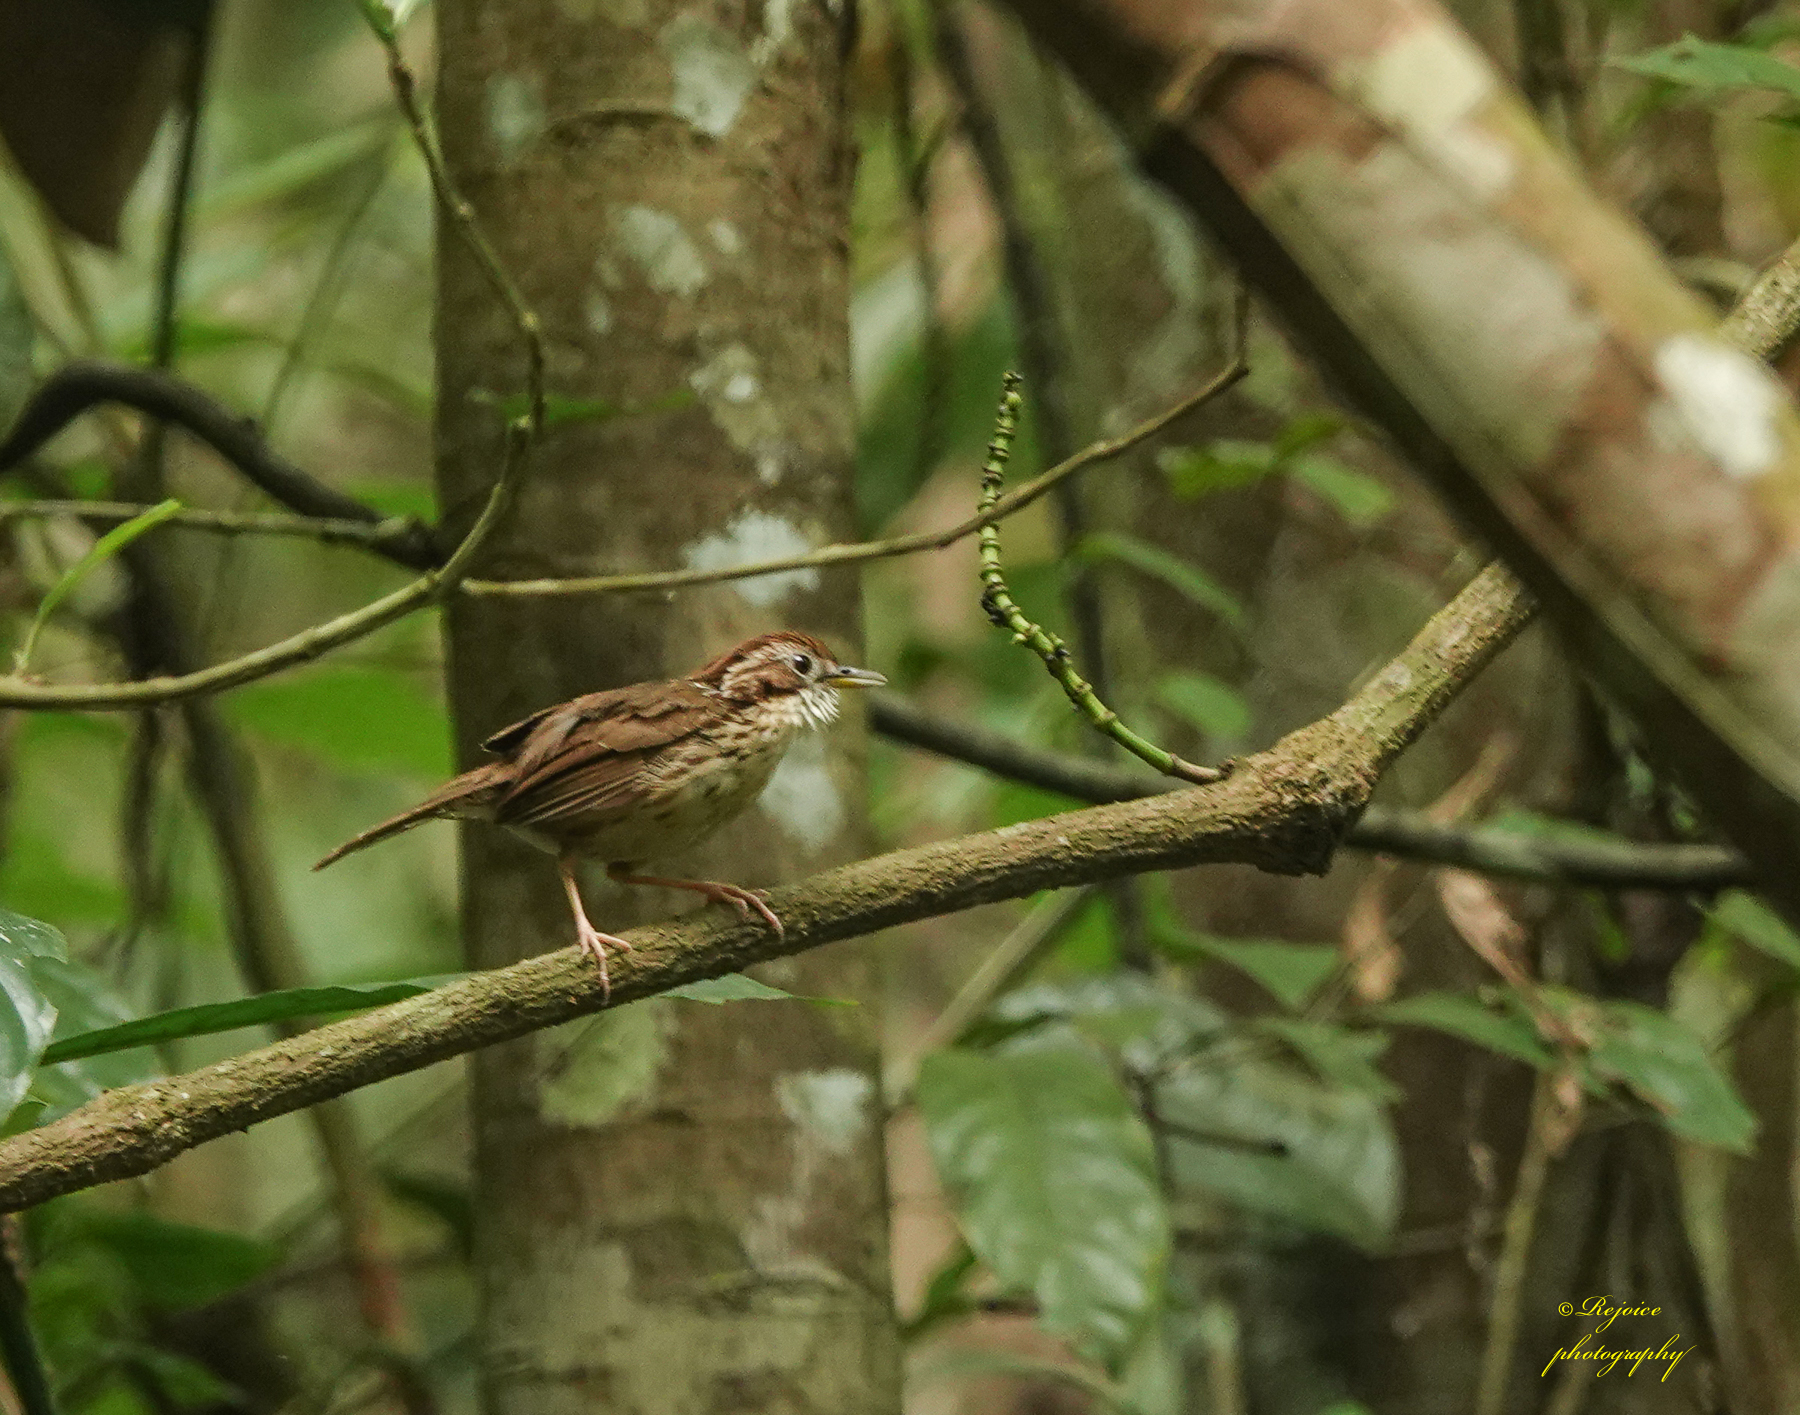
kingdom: Animalia
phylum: Chordata
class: Aves
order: Passeriformes
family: Pellorneidae
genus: Pellorneum
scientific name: Pellorneum ruficeps
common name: Puff-throated babbler
